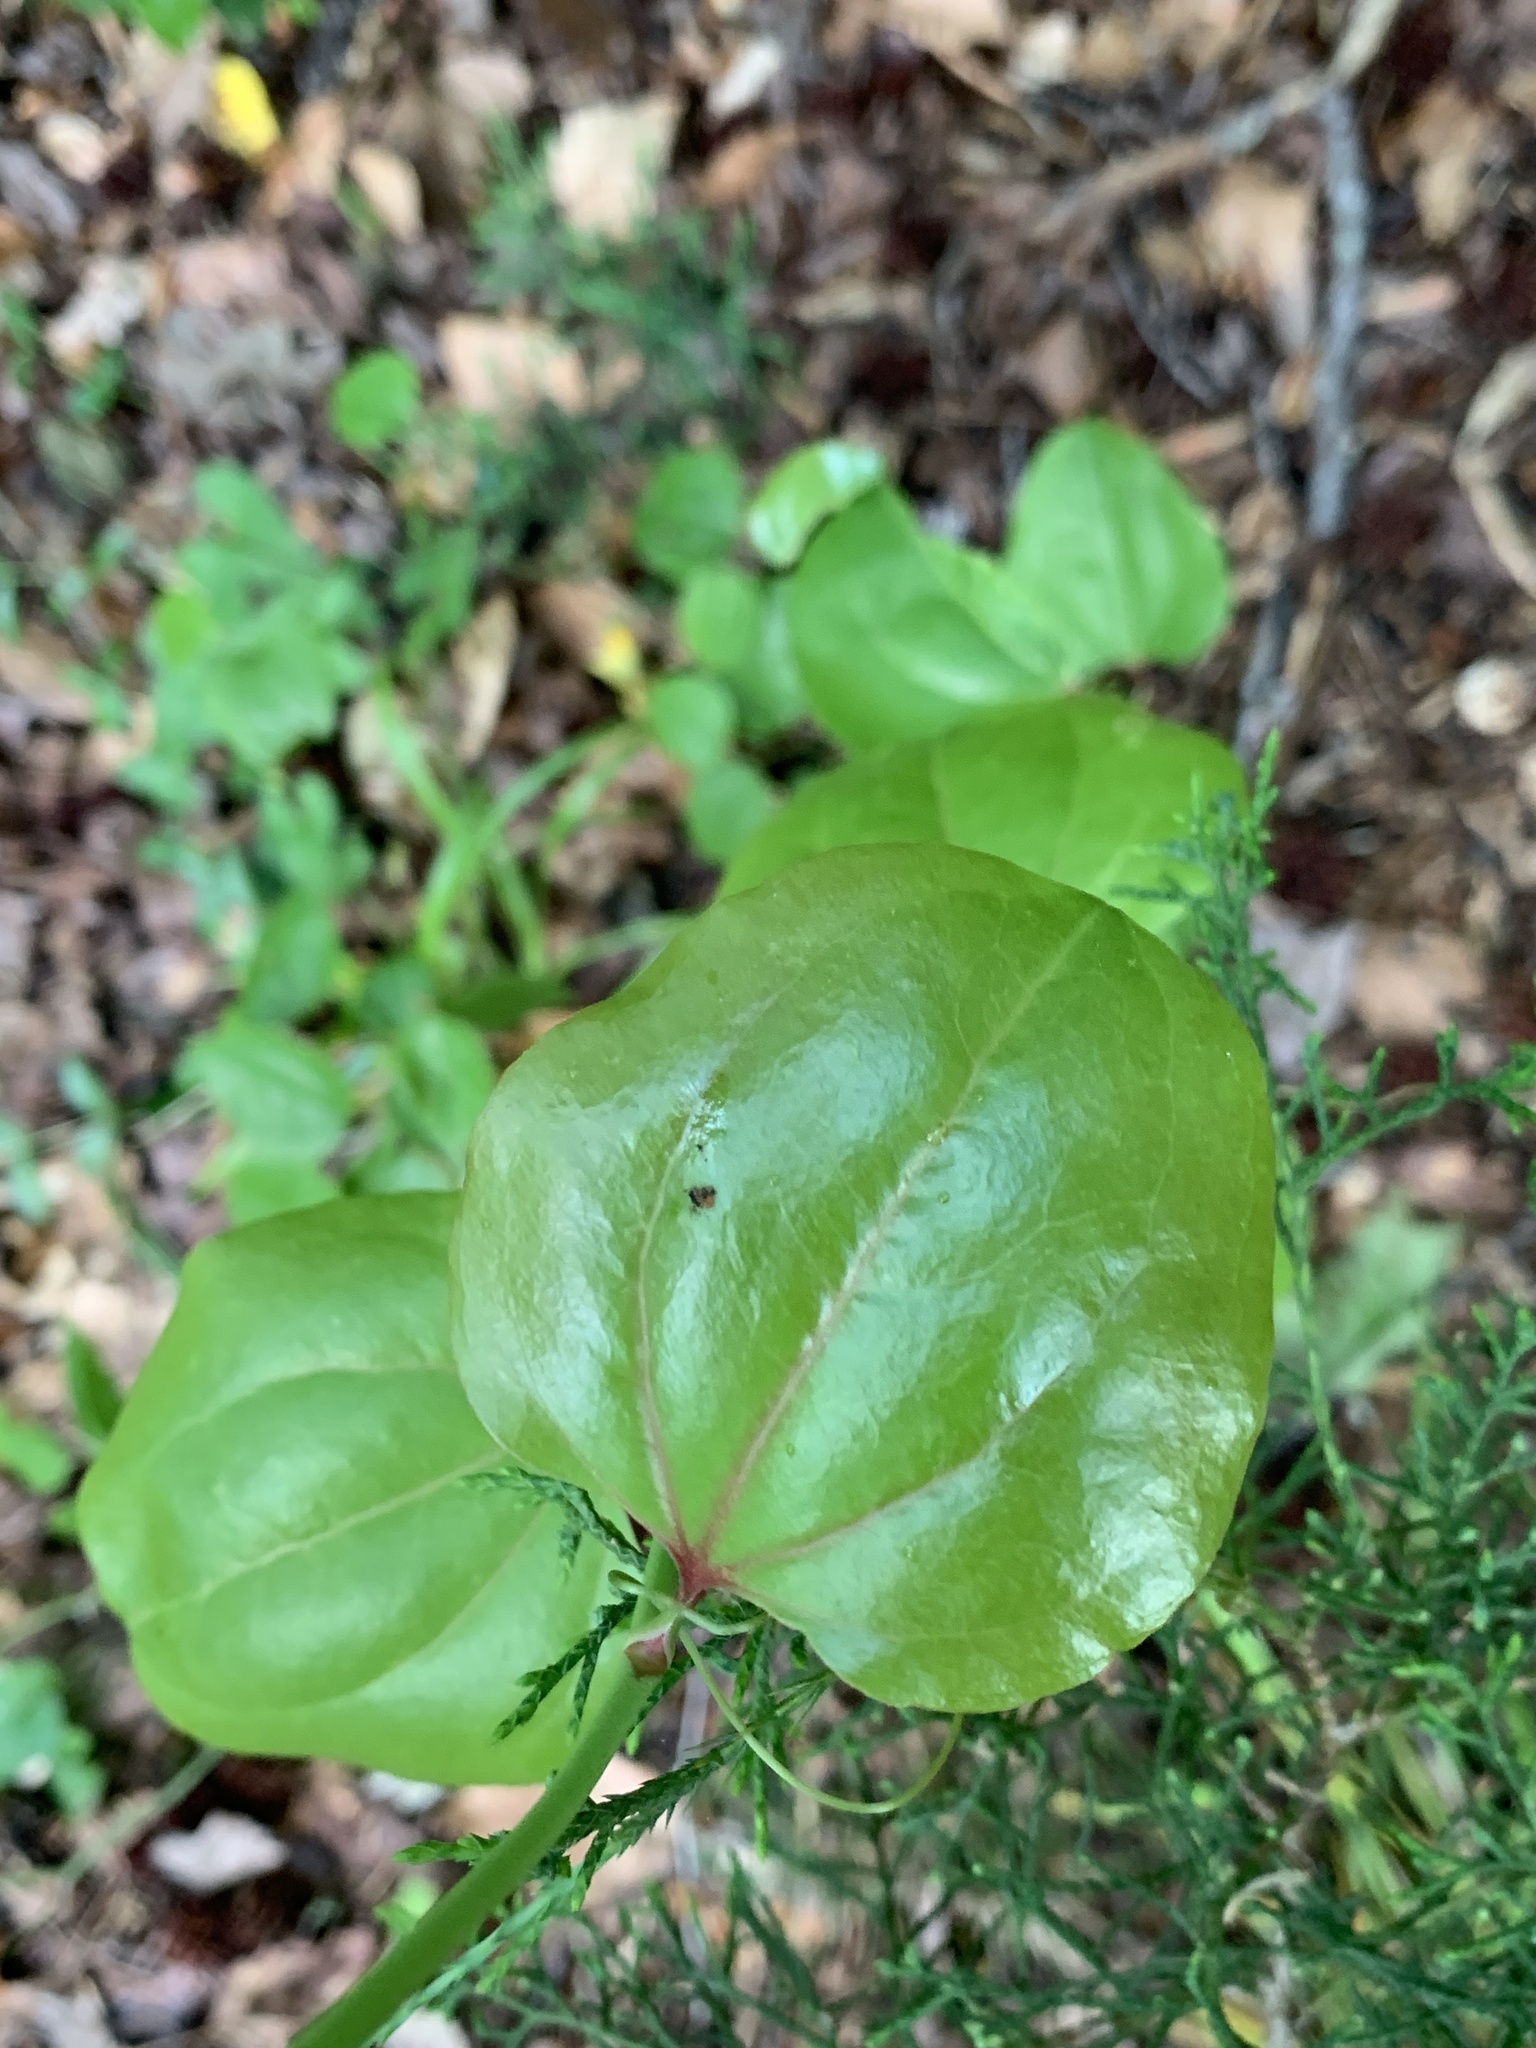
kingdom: Plantae
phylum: Tracheophyta
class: Liliopsida
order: Liliales
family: Smilacaceae
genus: Smilax
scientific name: Smilax rotundifolia
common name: Bullbriar
